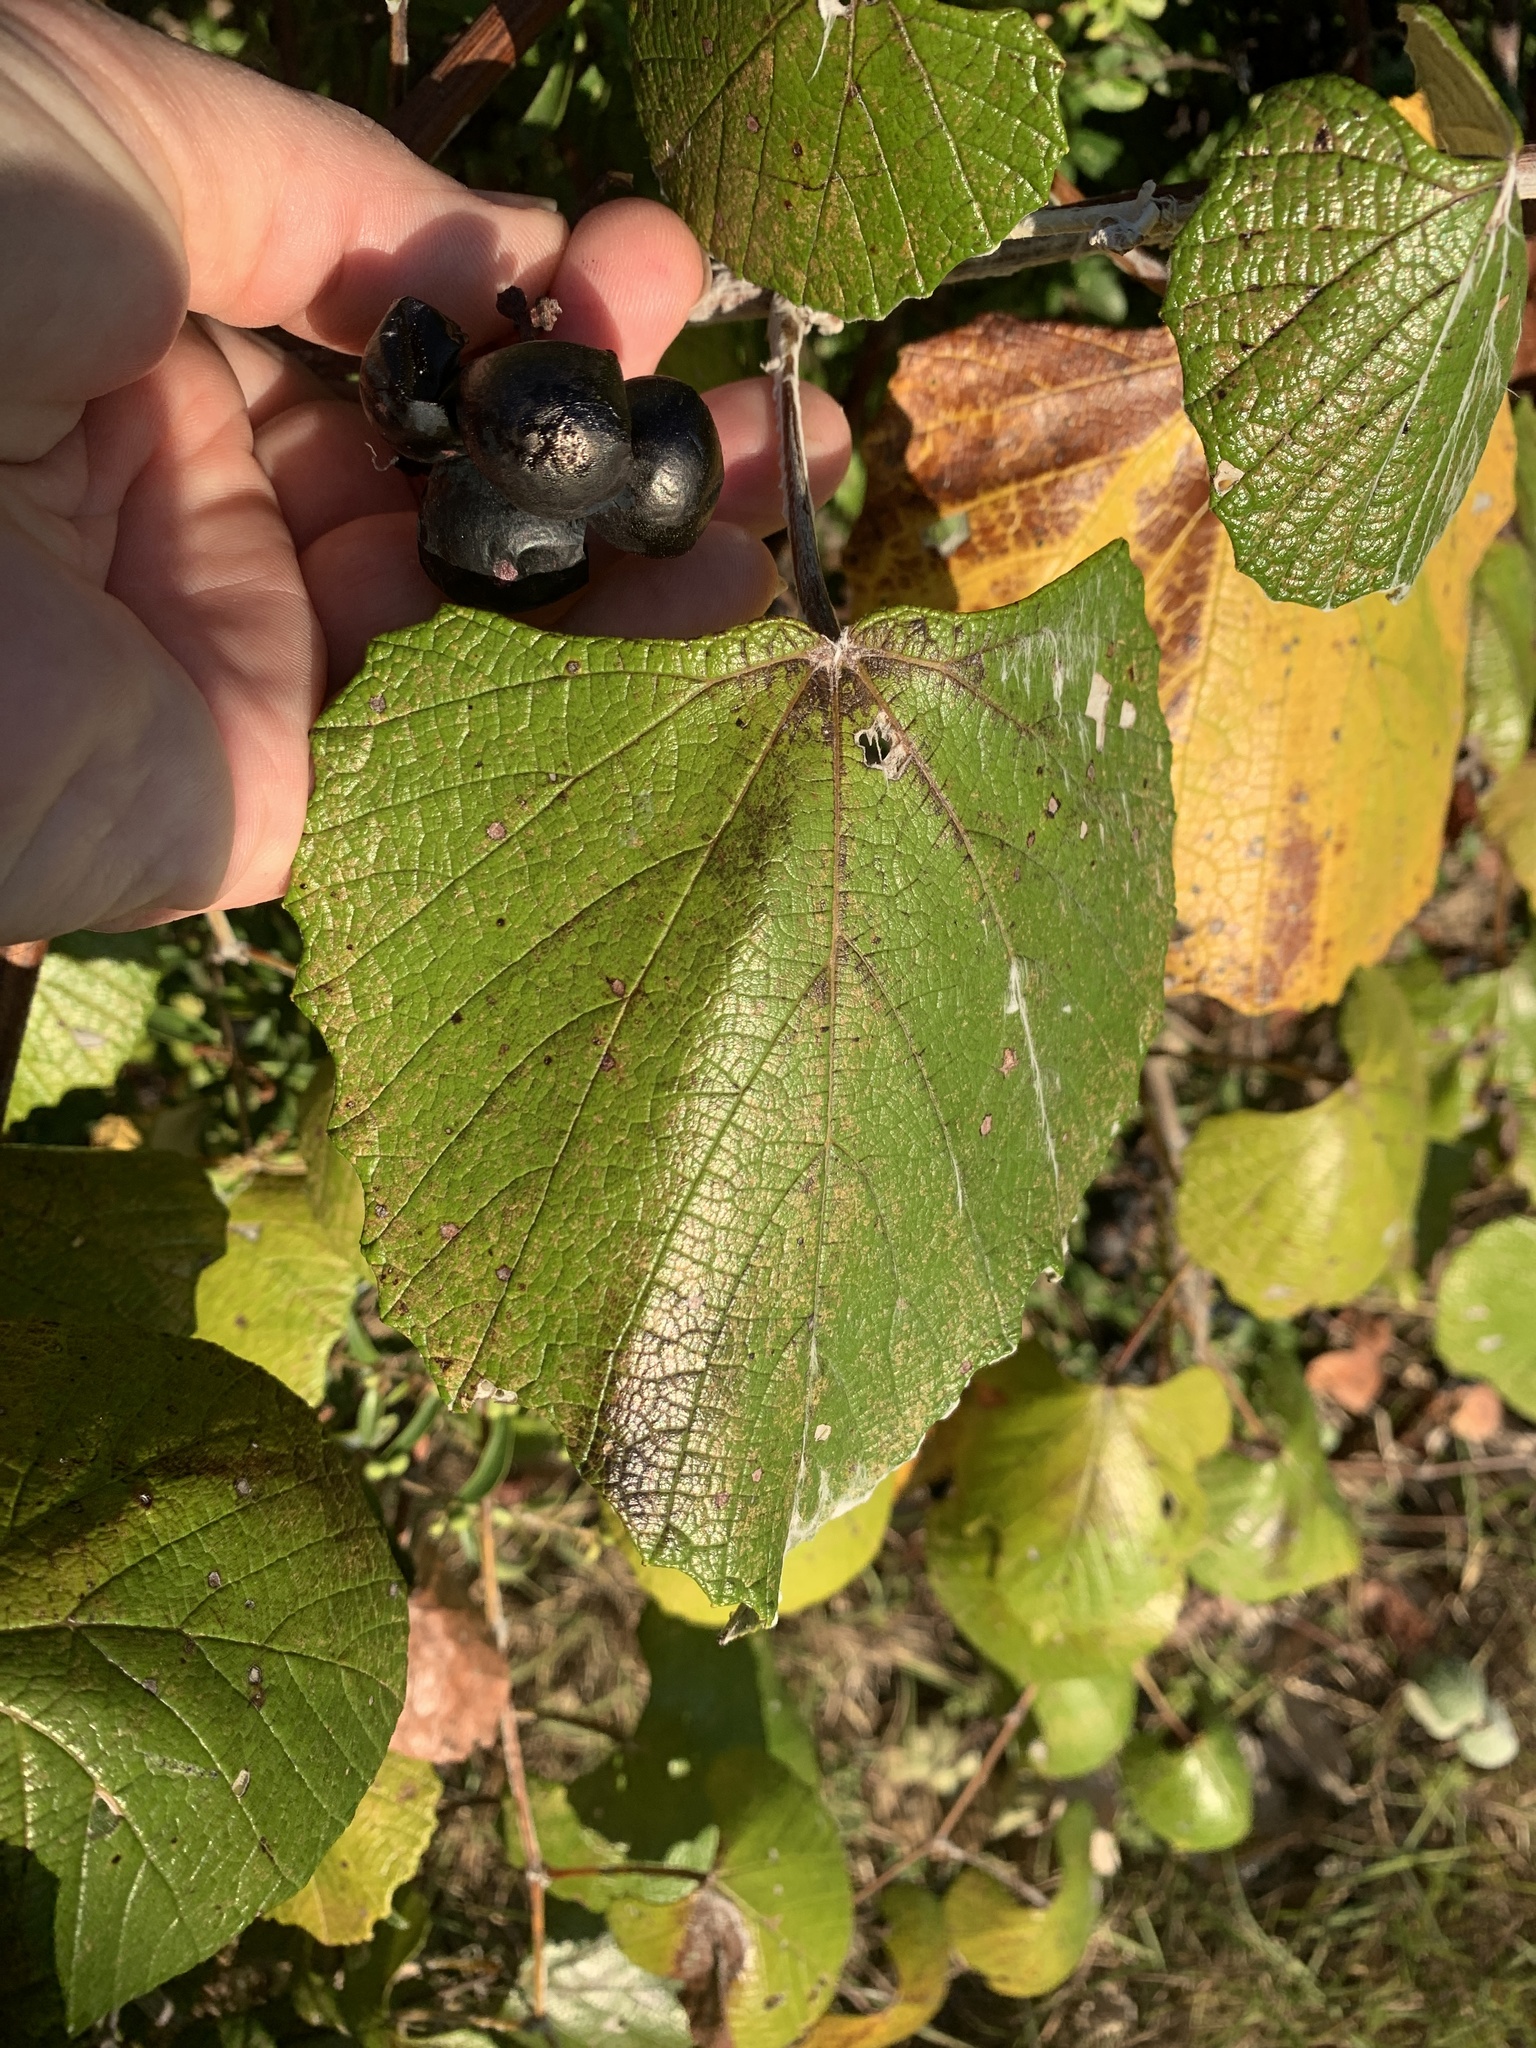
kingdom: Plantae
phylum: Tracheophyta
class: Magnoliopsida
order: Vitales
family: Vitaceae
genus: Vitis
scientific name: Vitis mustangensis
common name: Mustang grape
